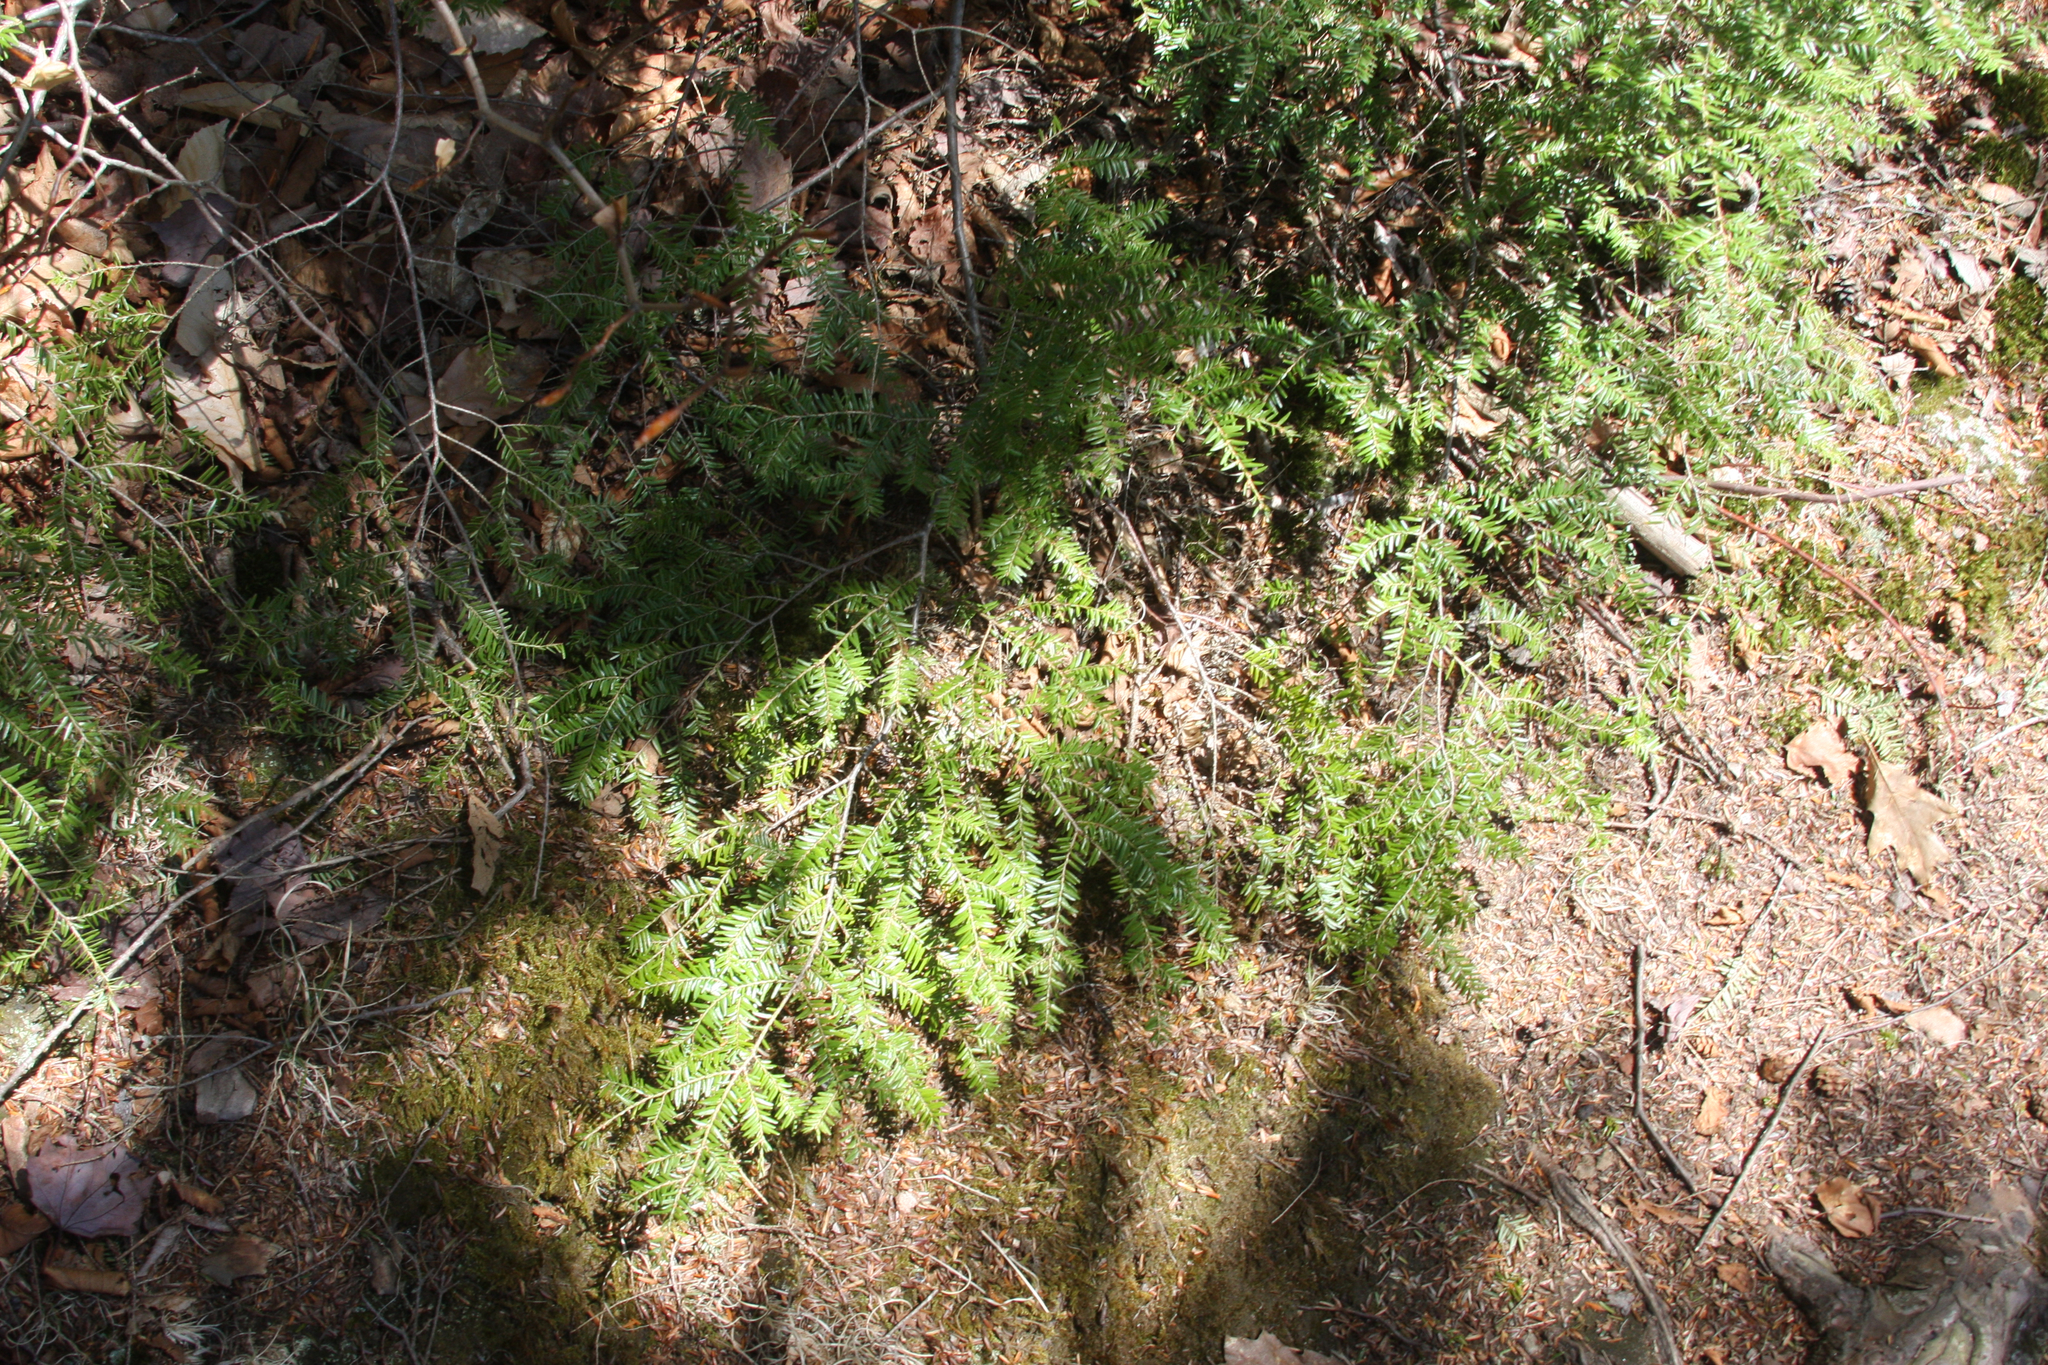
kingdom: Plantae
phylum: Tracheophyta
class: Pinopsida
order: Pinales
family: Pinaceae
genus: Tsuga
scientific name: Tsuga canadensis
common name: Eastern hemlock
